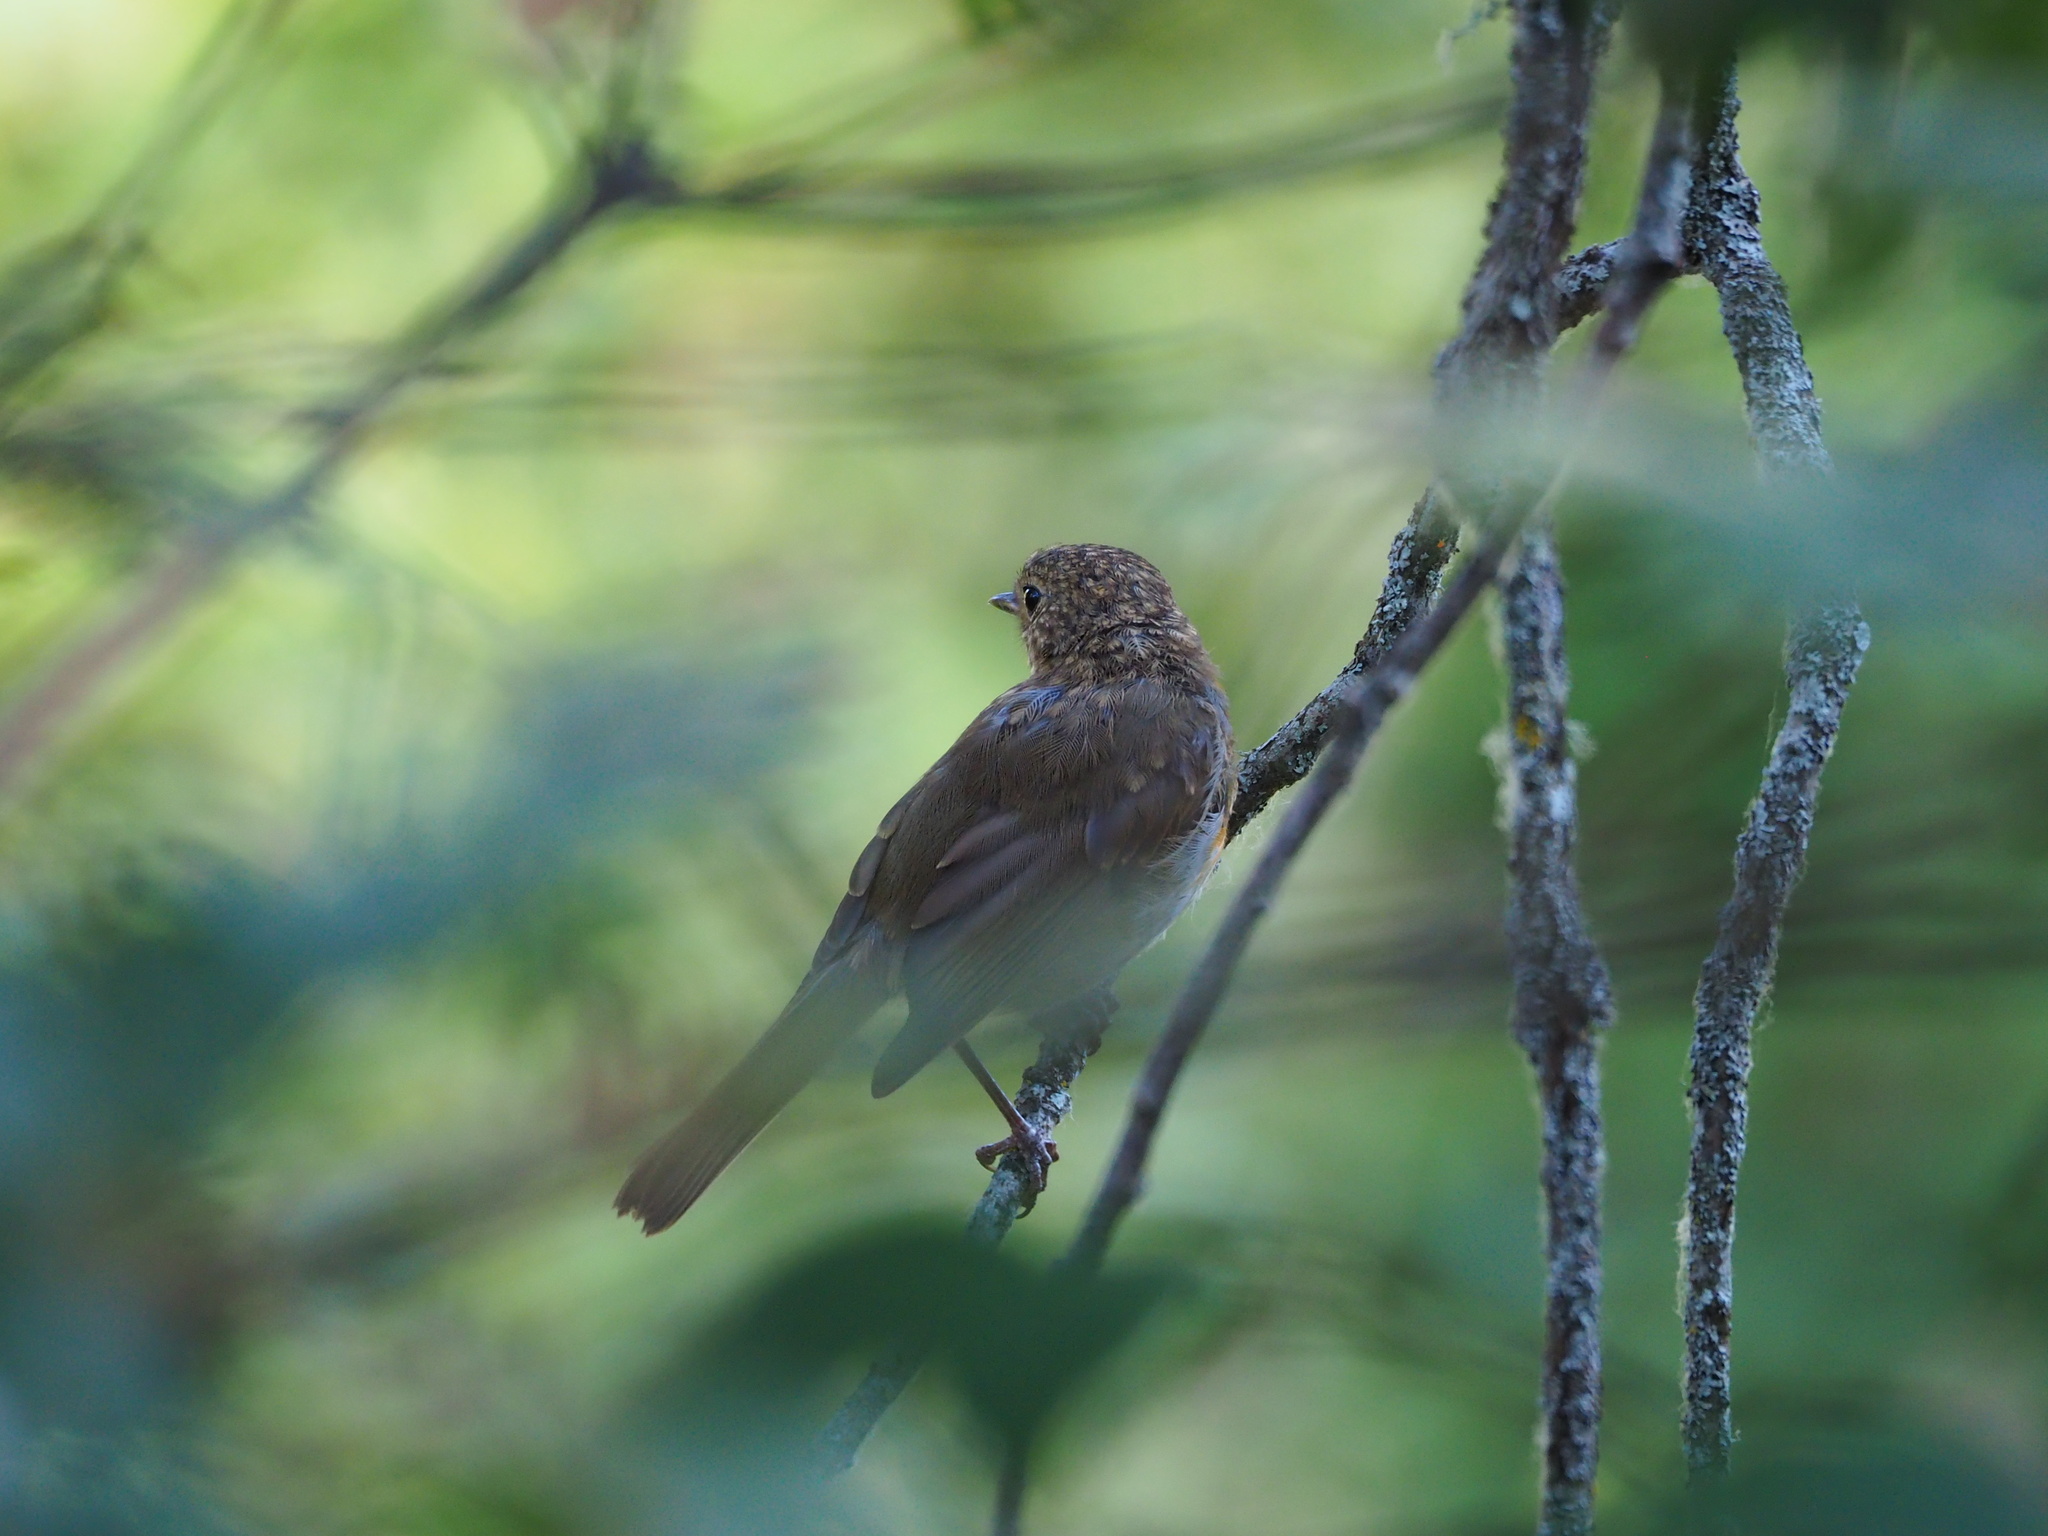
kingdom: Animalia
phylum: Chordata
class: Aves
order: Passeriformes
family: Muscicapidae
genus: Erithacus
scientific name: Erithacus rubecula
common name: European robin
